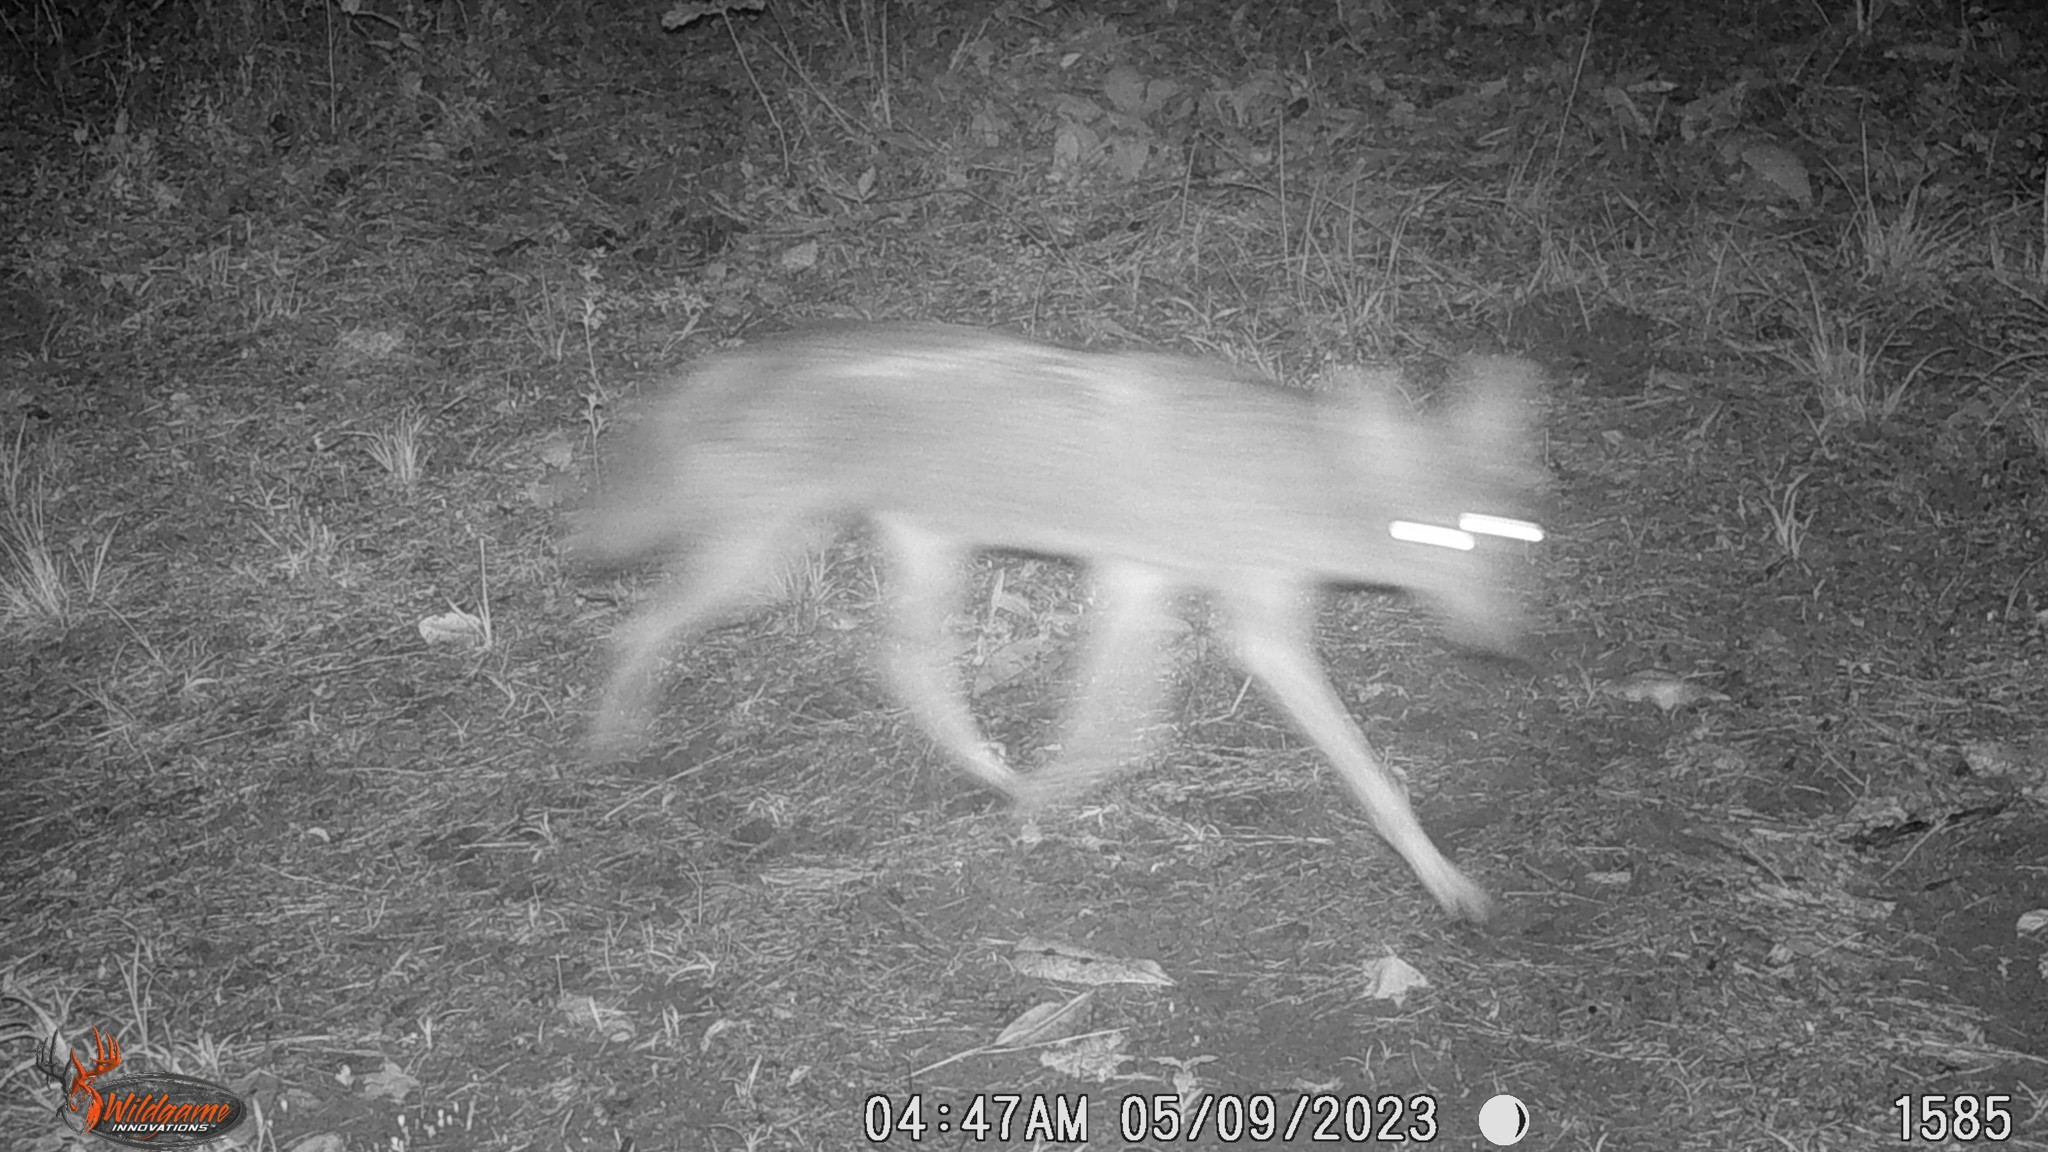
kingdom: Animalia
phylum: Chordata
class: Mammalia
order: Carnivora
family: Canidae
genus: Canis
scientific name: Canis latrans
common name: Coyote
